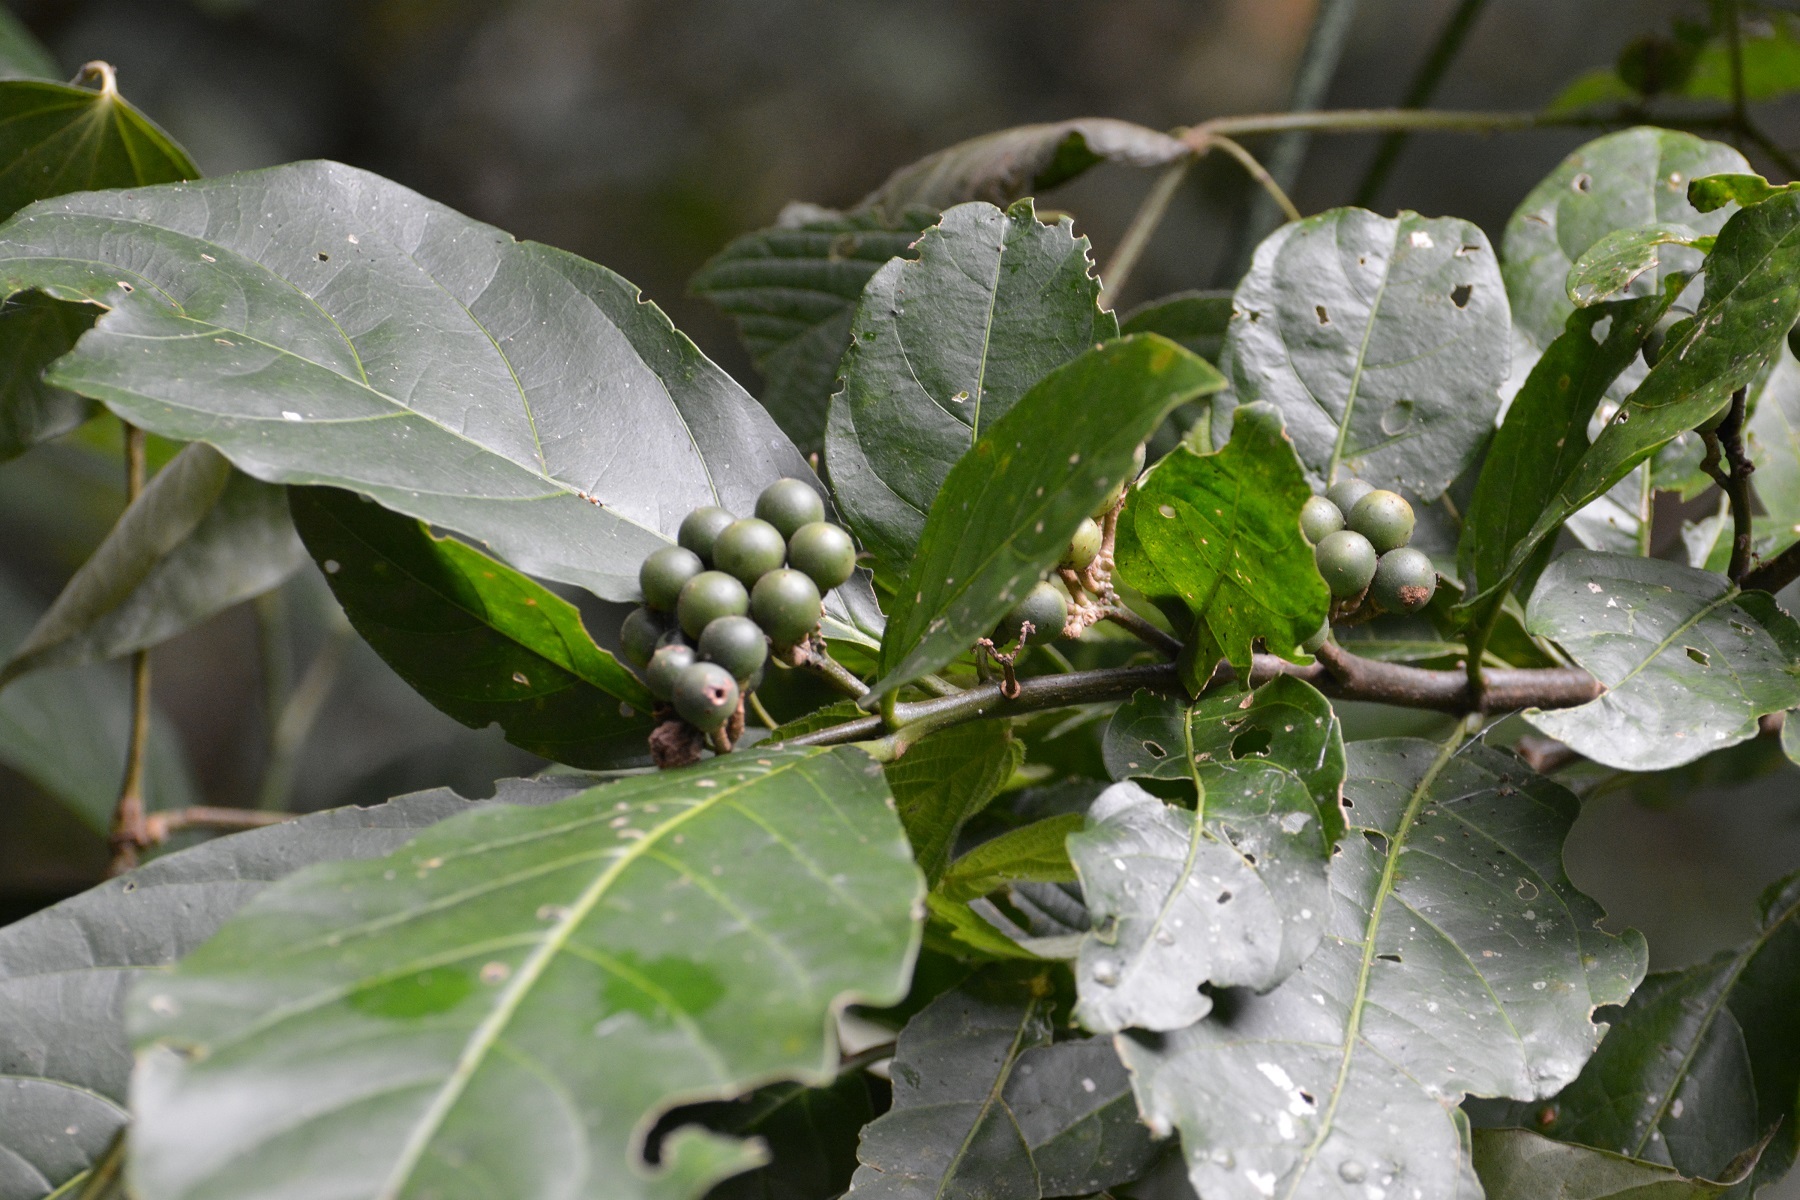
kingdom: Plantae
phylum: Tracheophyta
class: Magnoliopsida
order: Solanales
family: Solanaceae
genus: Solanum
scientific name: Solanum rovirosanum
